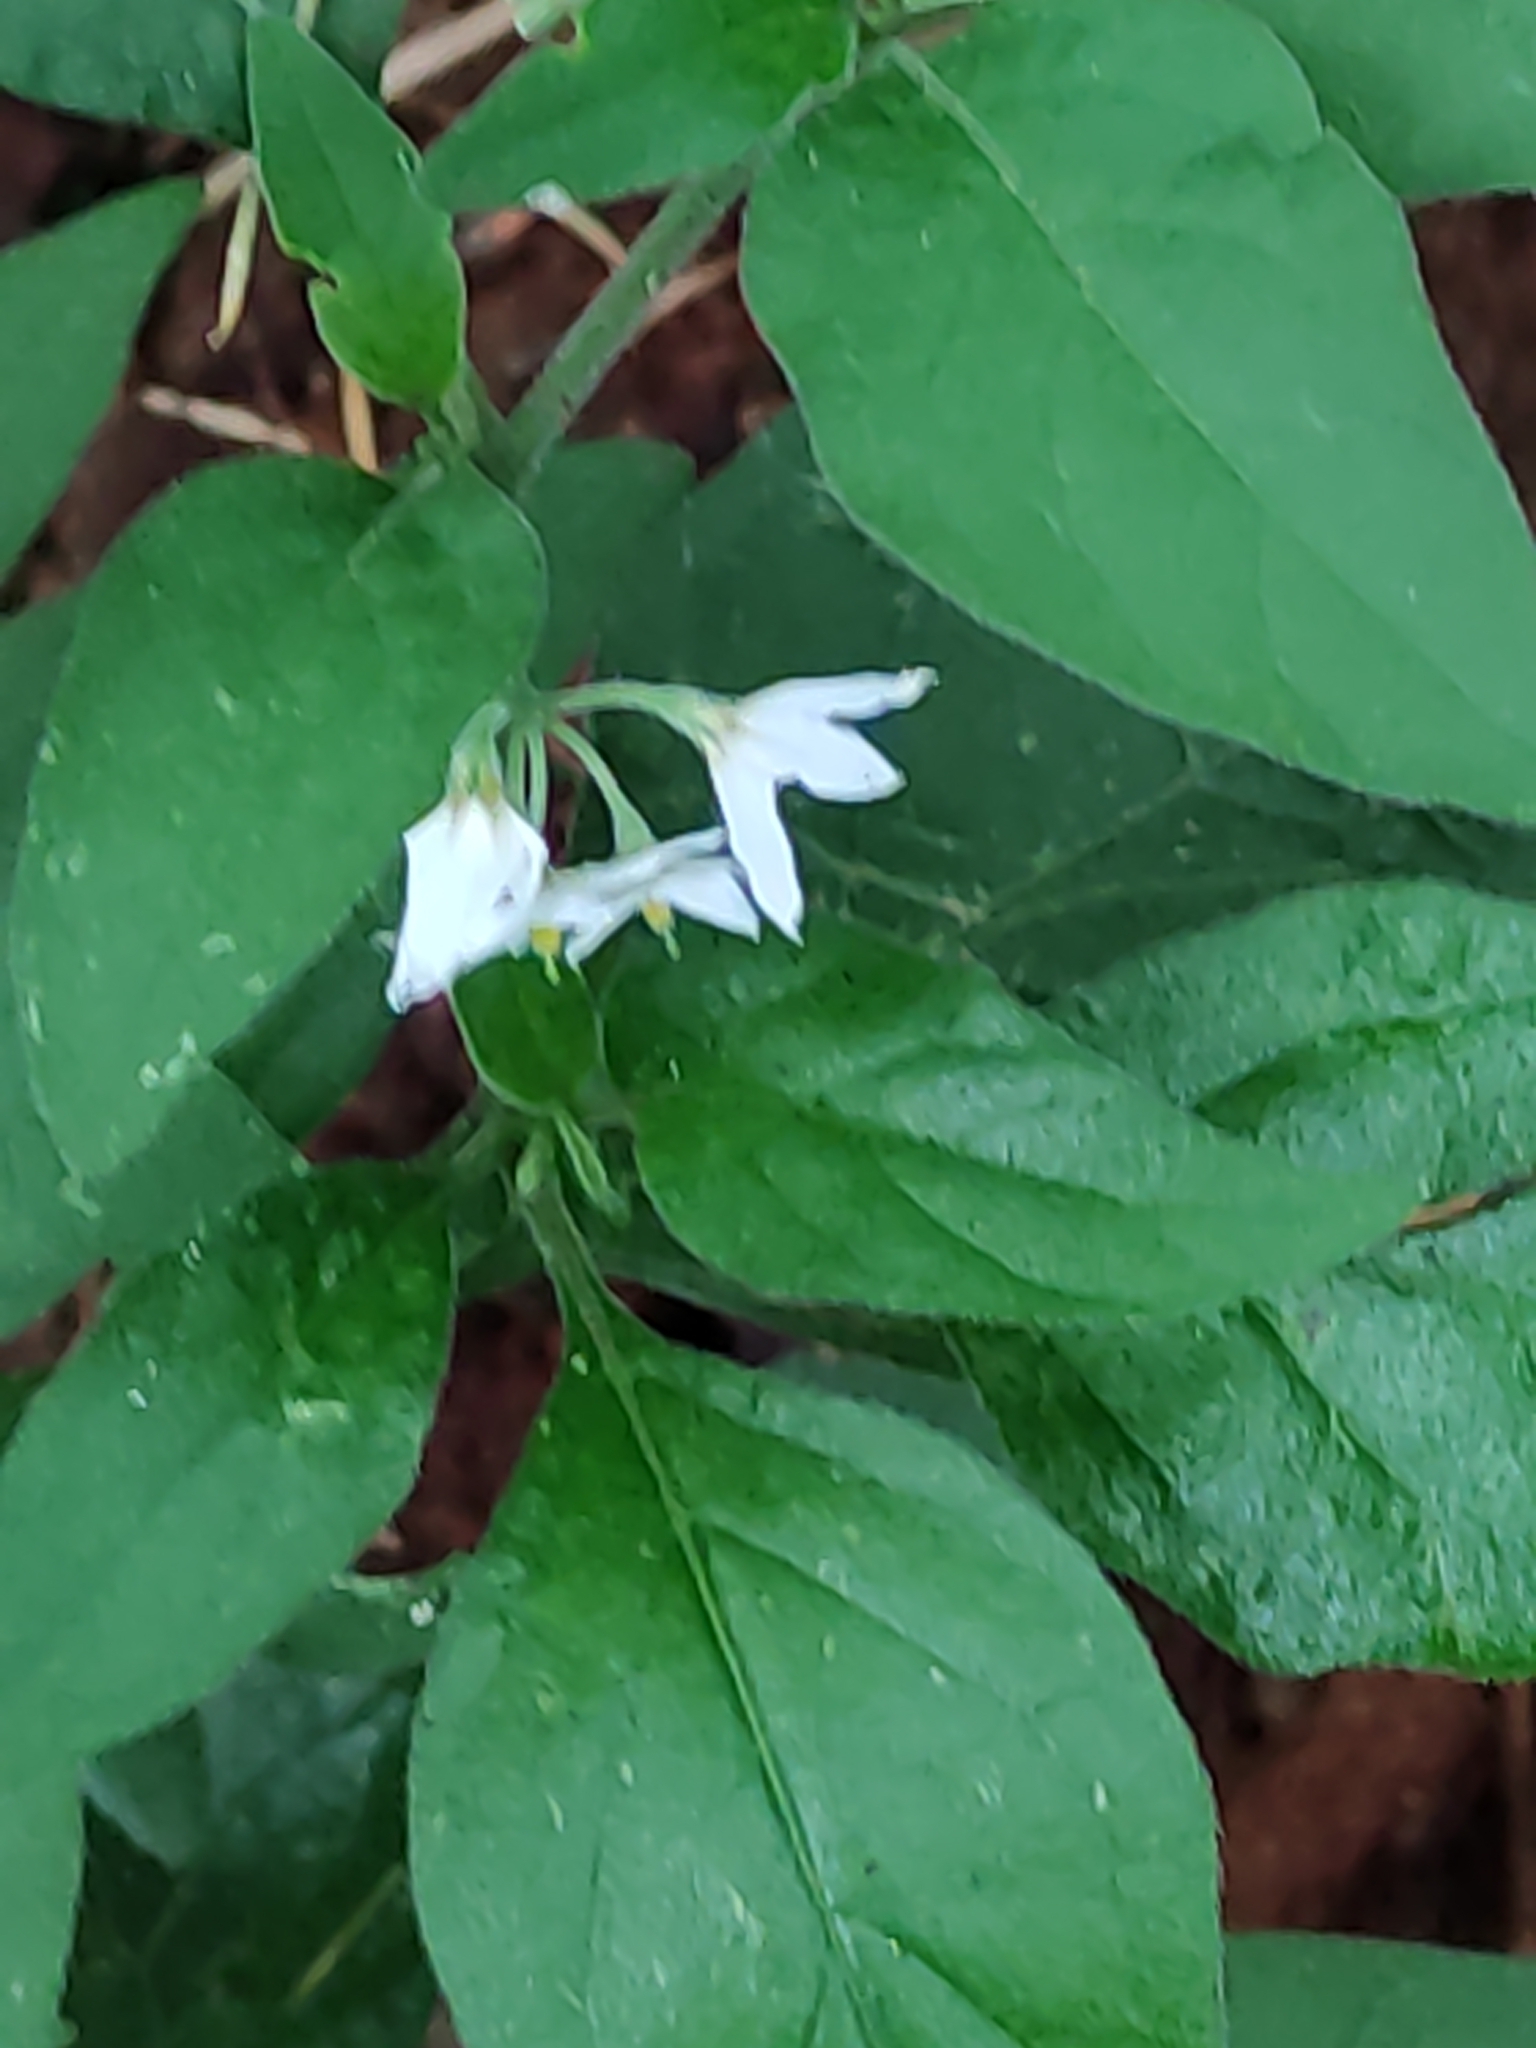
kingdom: Plantae
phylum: Tracheophyta
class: Magnoliopsida
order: Solanales
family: Solanaceae
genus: Solanum
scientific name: Solanum chenopodioides
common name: Tall nightshade
